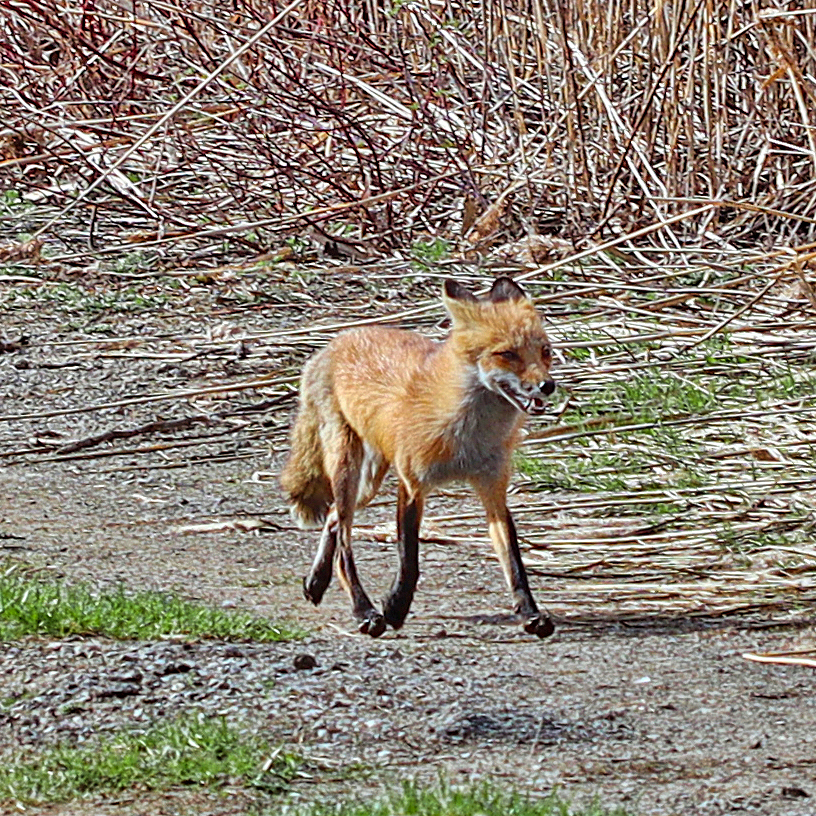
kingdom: Animalia
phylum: Chordata
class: Mammalia
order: Carnivora
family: Canidae
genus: Vulpes
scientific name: Vulpes vulpes
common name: Red fox
